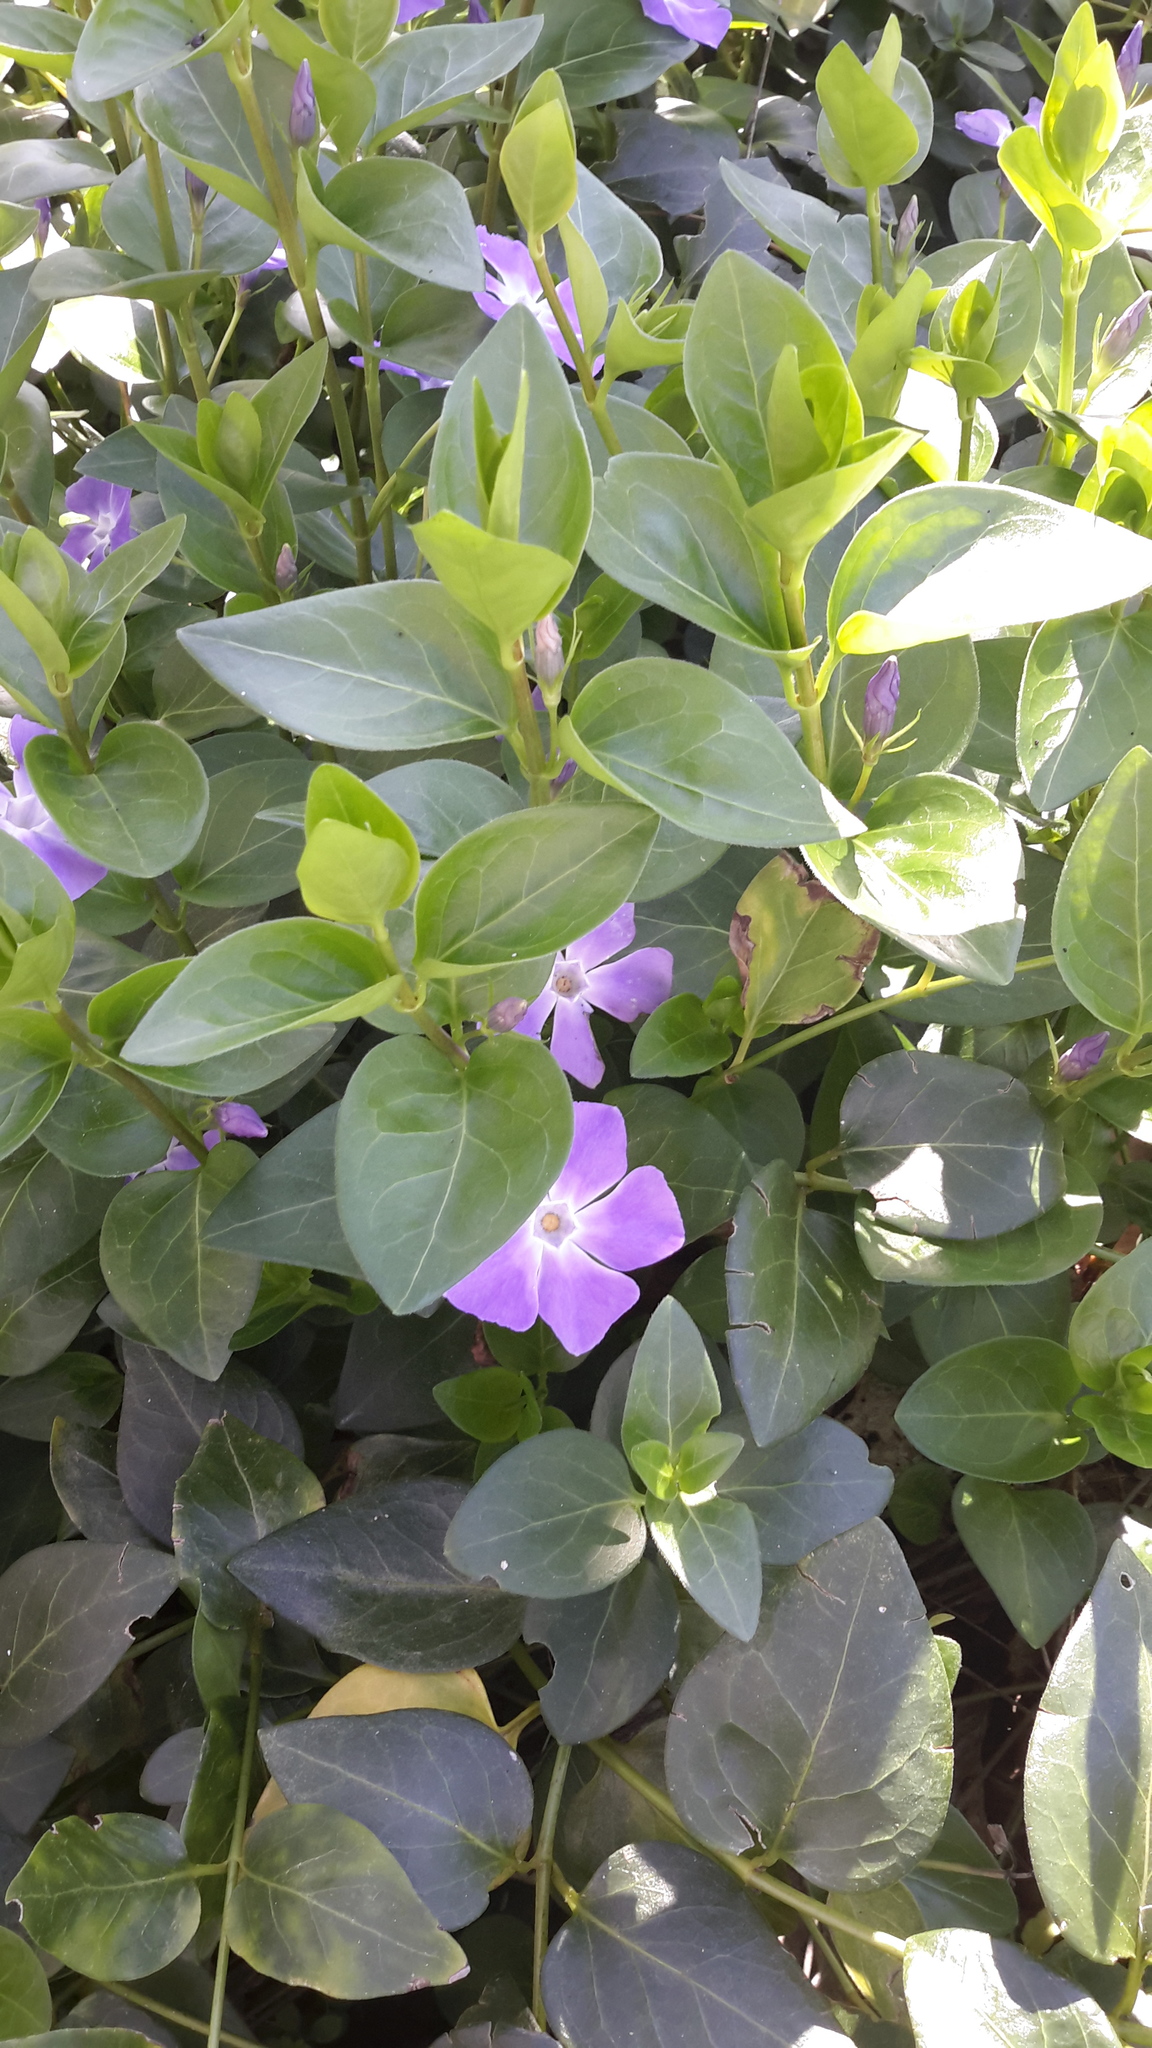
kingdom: Plantae
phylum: Tracheophyta
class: Magnoliopsida
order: Gentianales
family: Apocynaceae
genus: Vinca
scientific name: Vinca major
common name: Greater periwinkle
